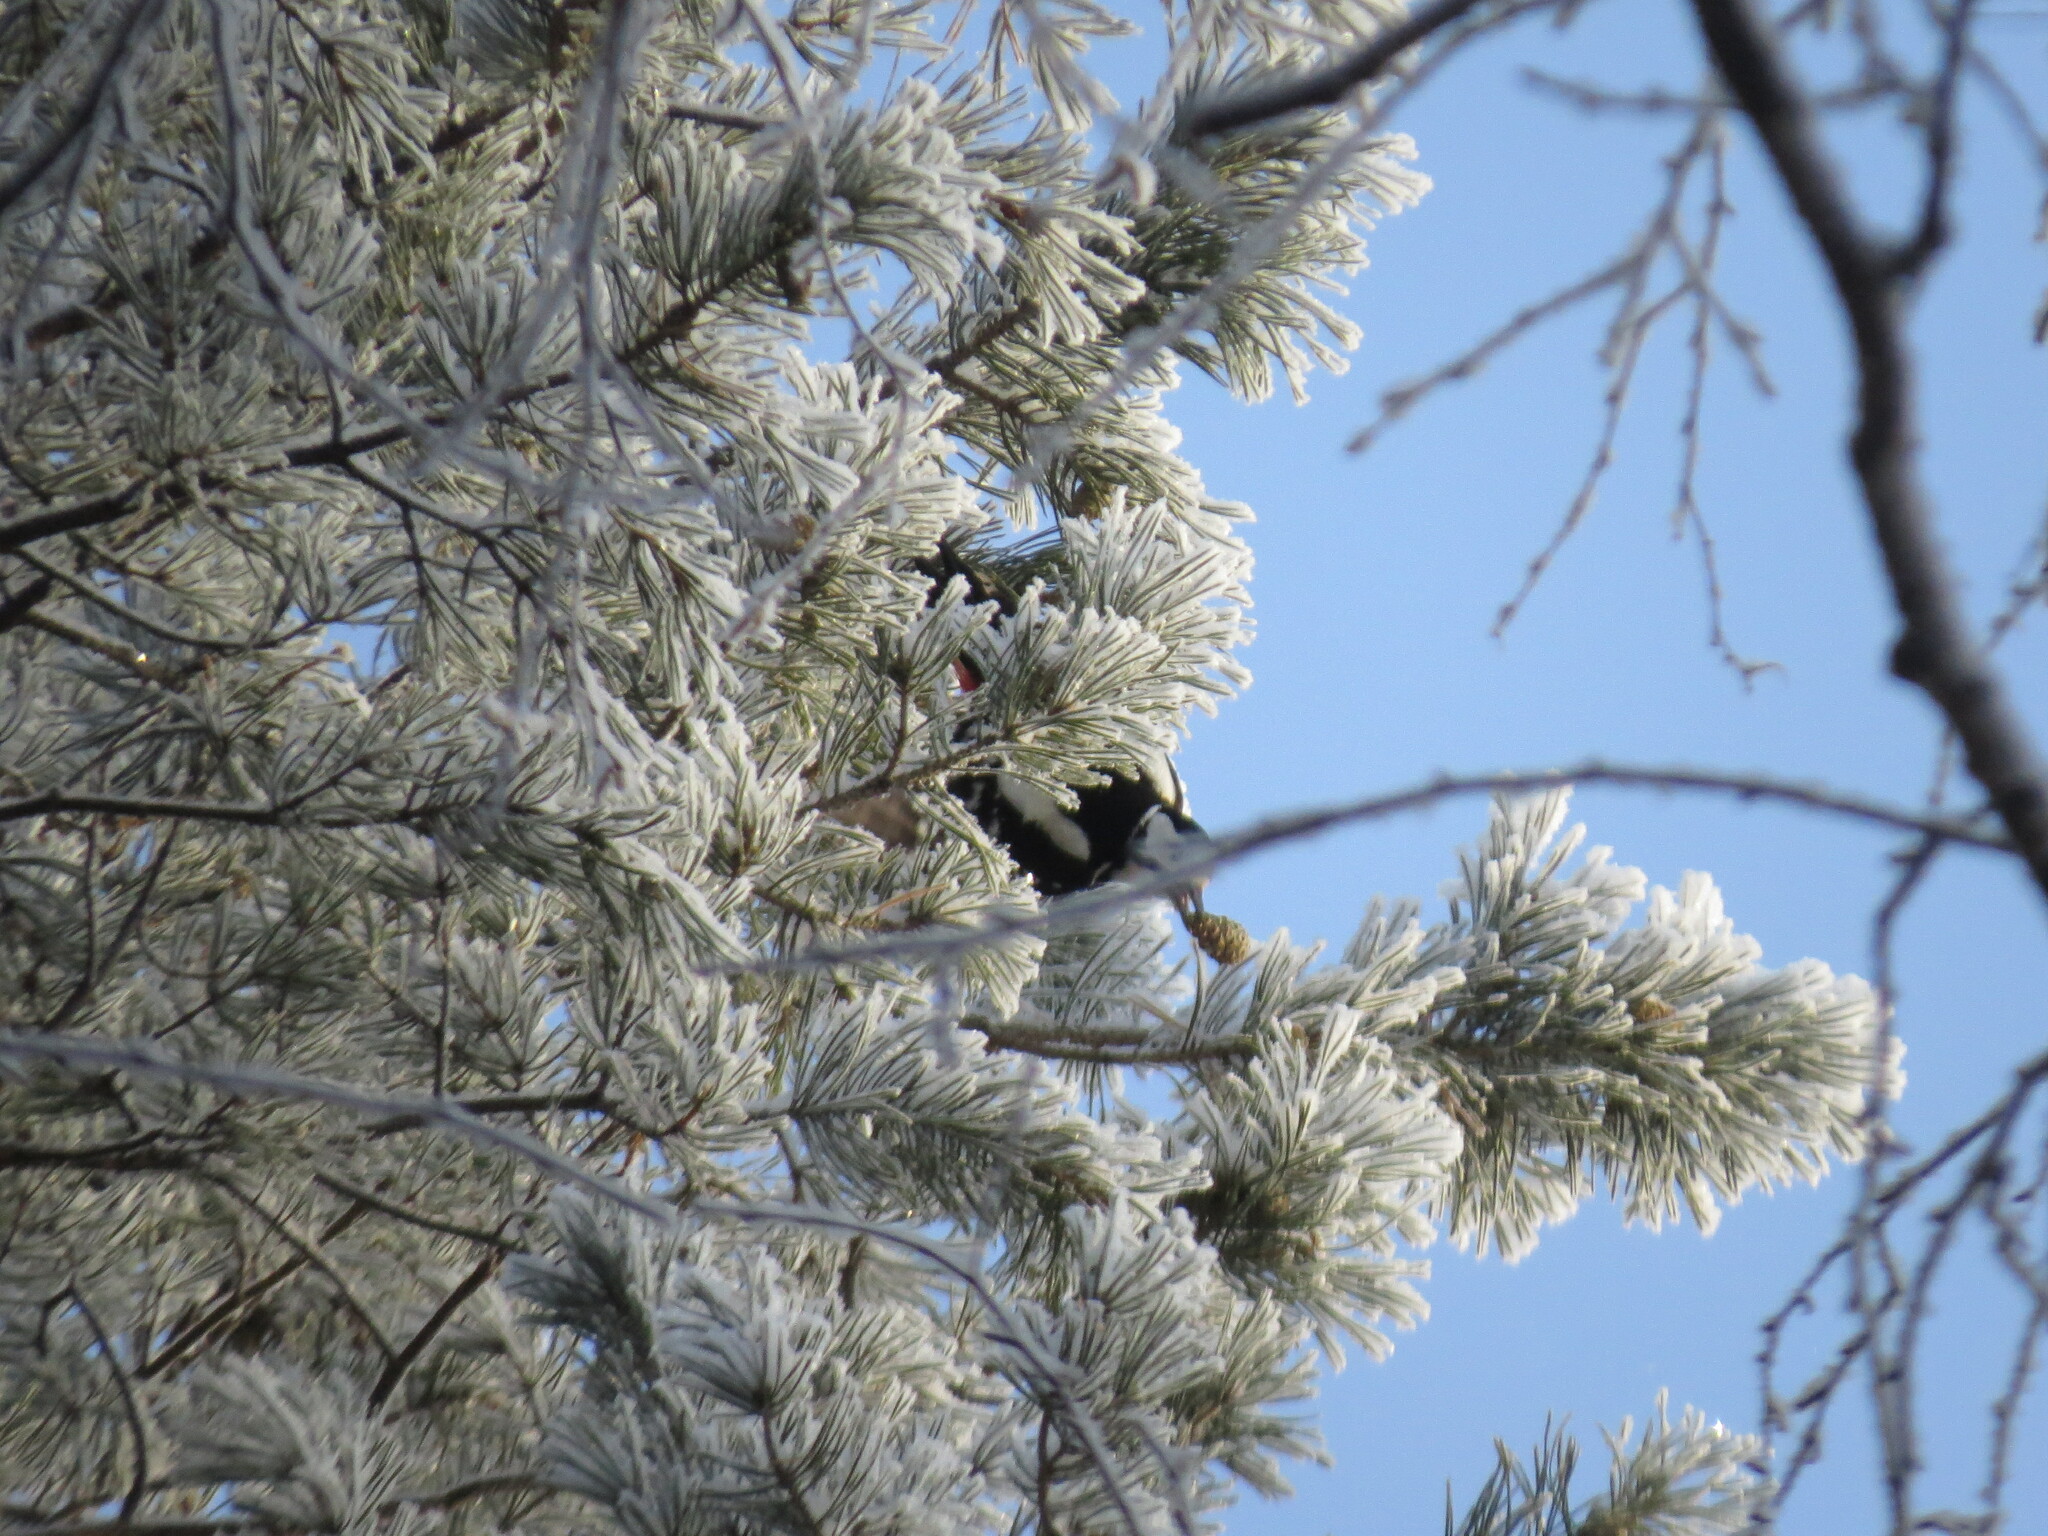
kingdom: Animalia
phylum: Chordata
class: Aves
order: Piciformes
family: Picidae
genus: Dendrocopos
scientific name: Dendrocopos major
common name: Great spotted woodpecker
